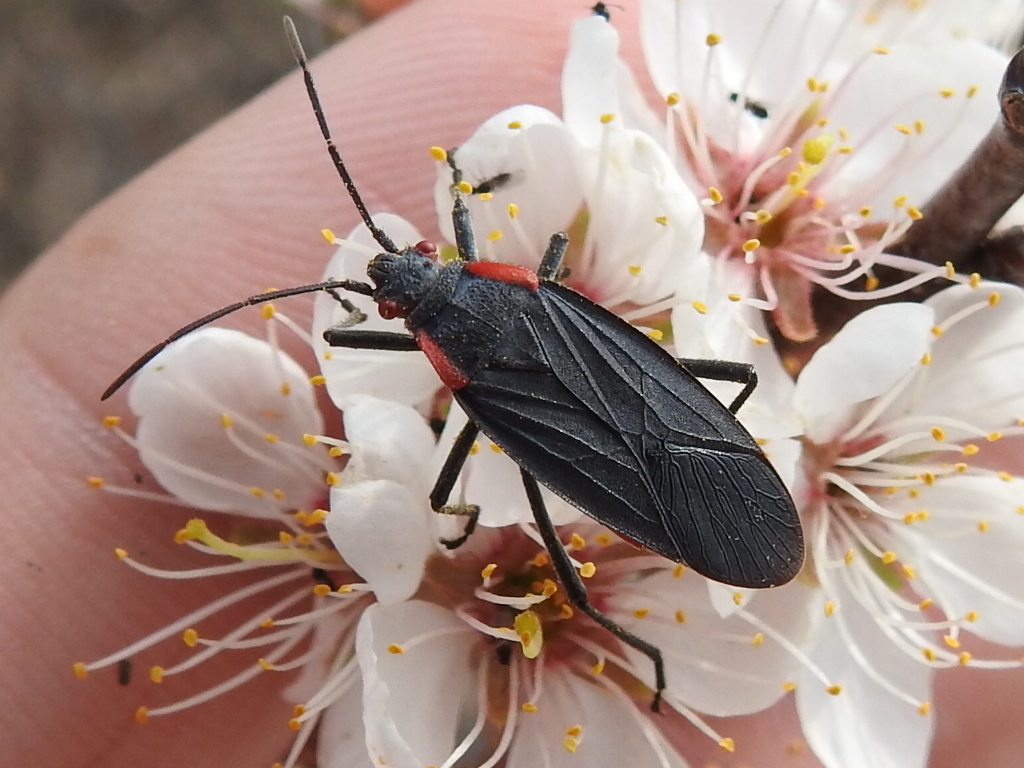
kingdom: Animalia
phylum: Arthropoda
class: Insecta
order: Hemiptera
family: Rhopalidae
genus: Jadera
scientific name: Jadera haematoloma
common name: Red-shouldered bug
